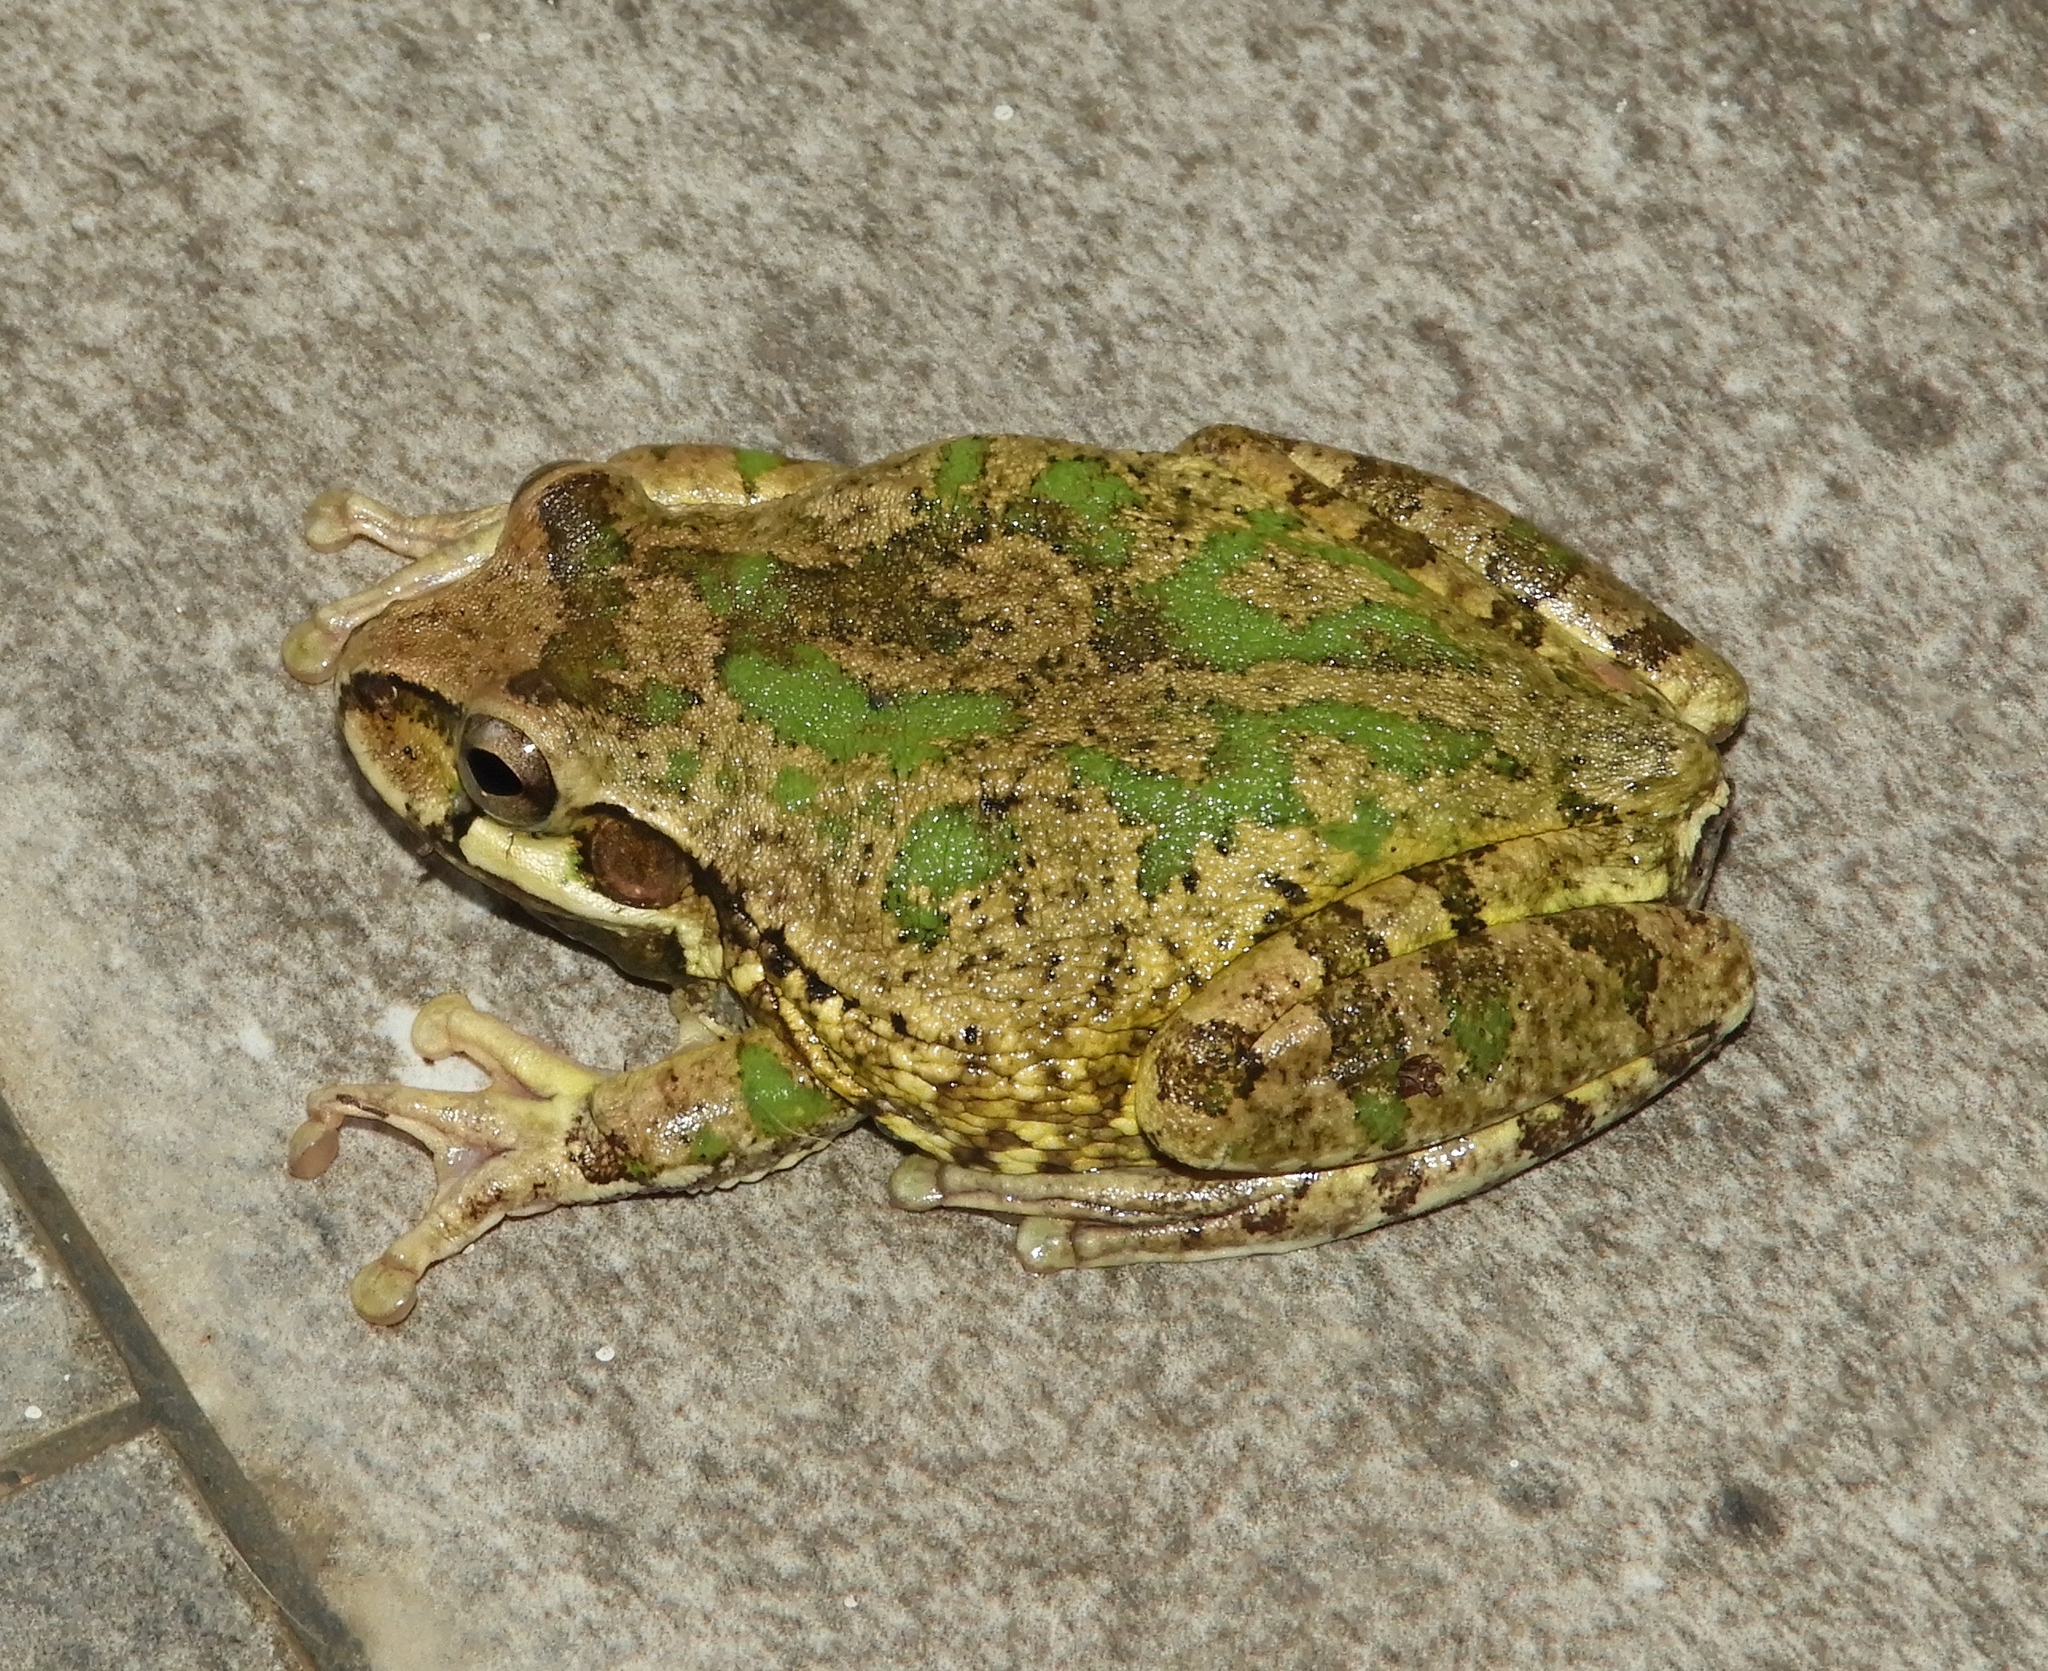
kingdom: Animalia
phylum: Chordata
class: Amphibia
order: Anura
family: Hylidae
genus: Smilisca
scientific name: Smilisca baudinii
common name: Mexican smilisca
